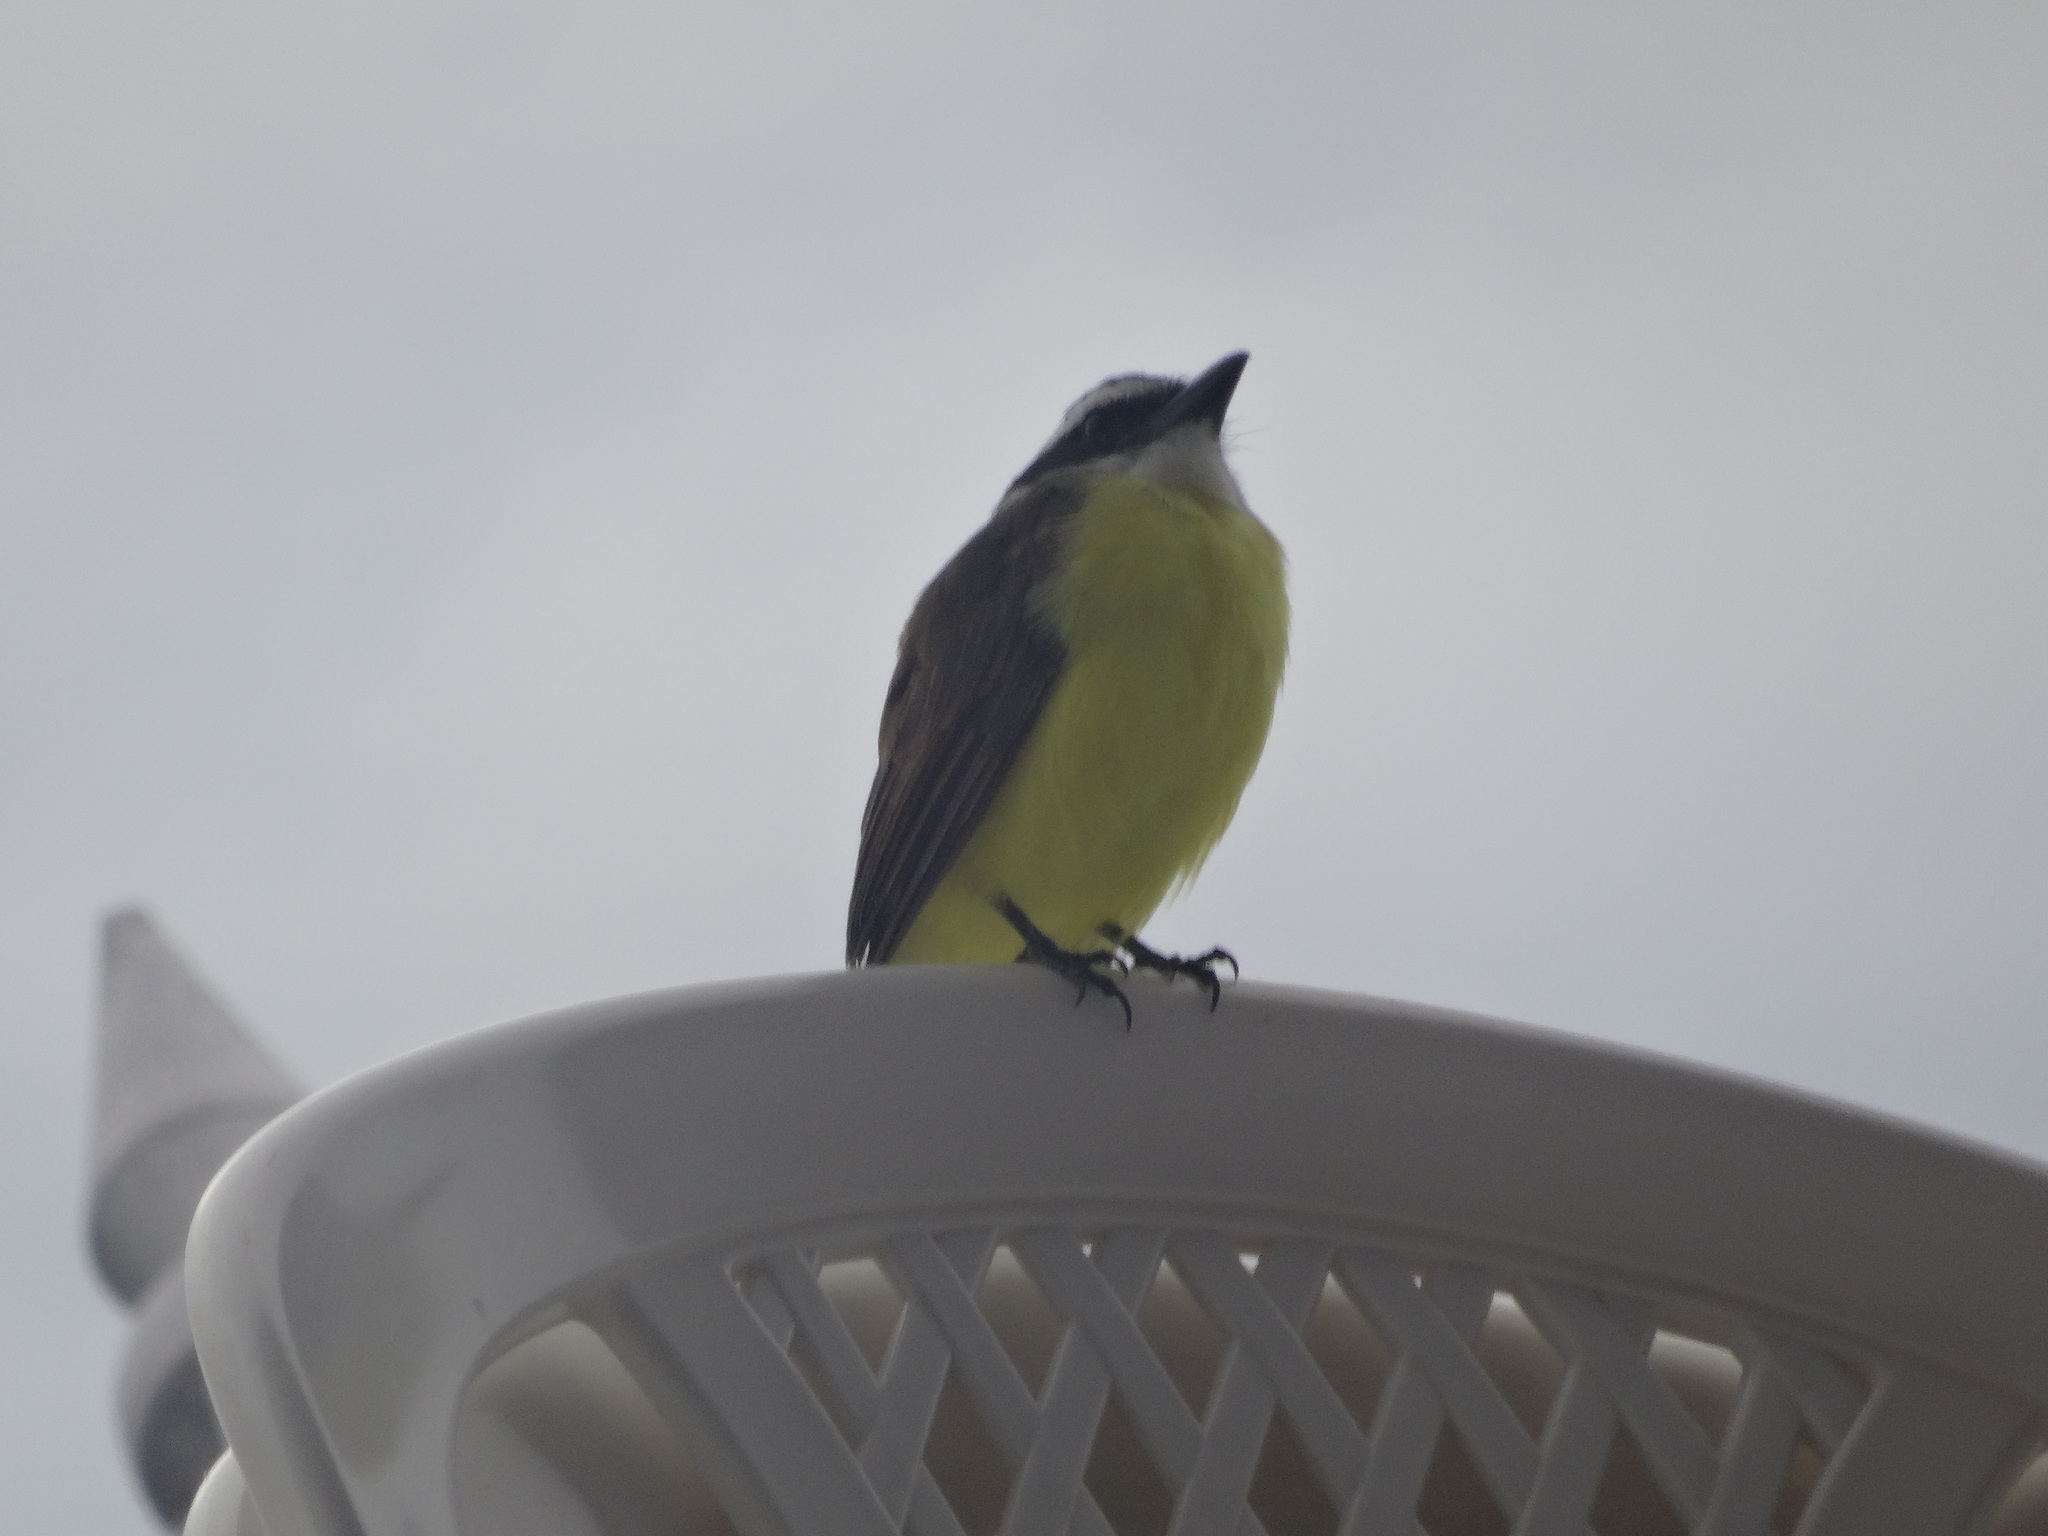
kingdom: Animalia
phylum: Chordata
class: Aves
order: Passeriformes
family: Tyrannidae
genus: Pitangus
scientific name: Pitangus sulphuratus
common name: Great kiskadee
